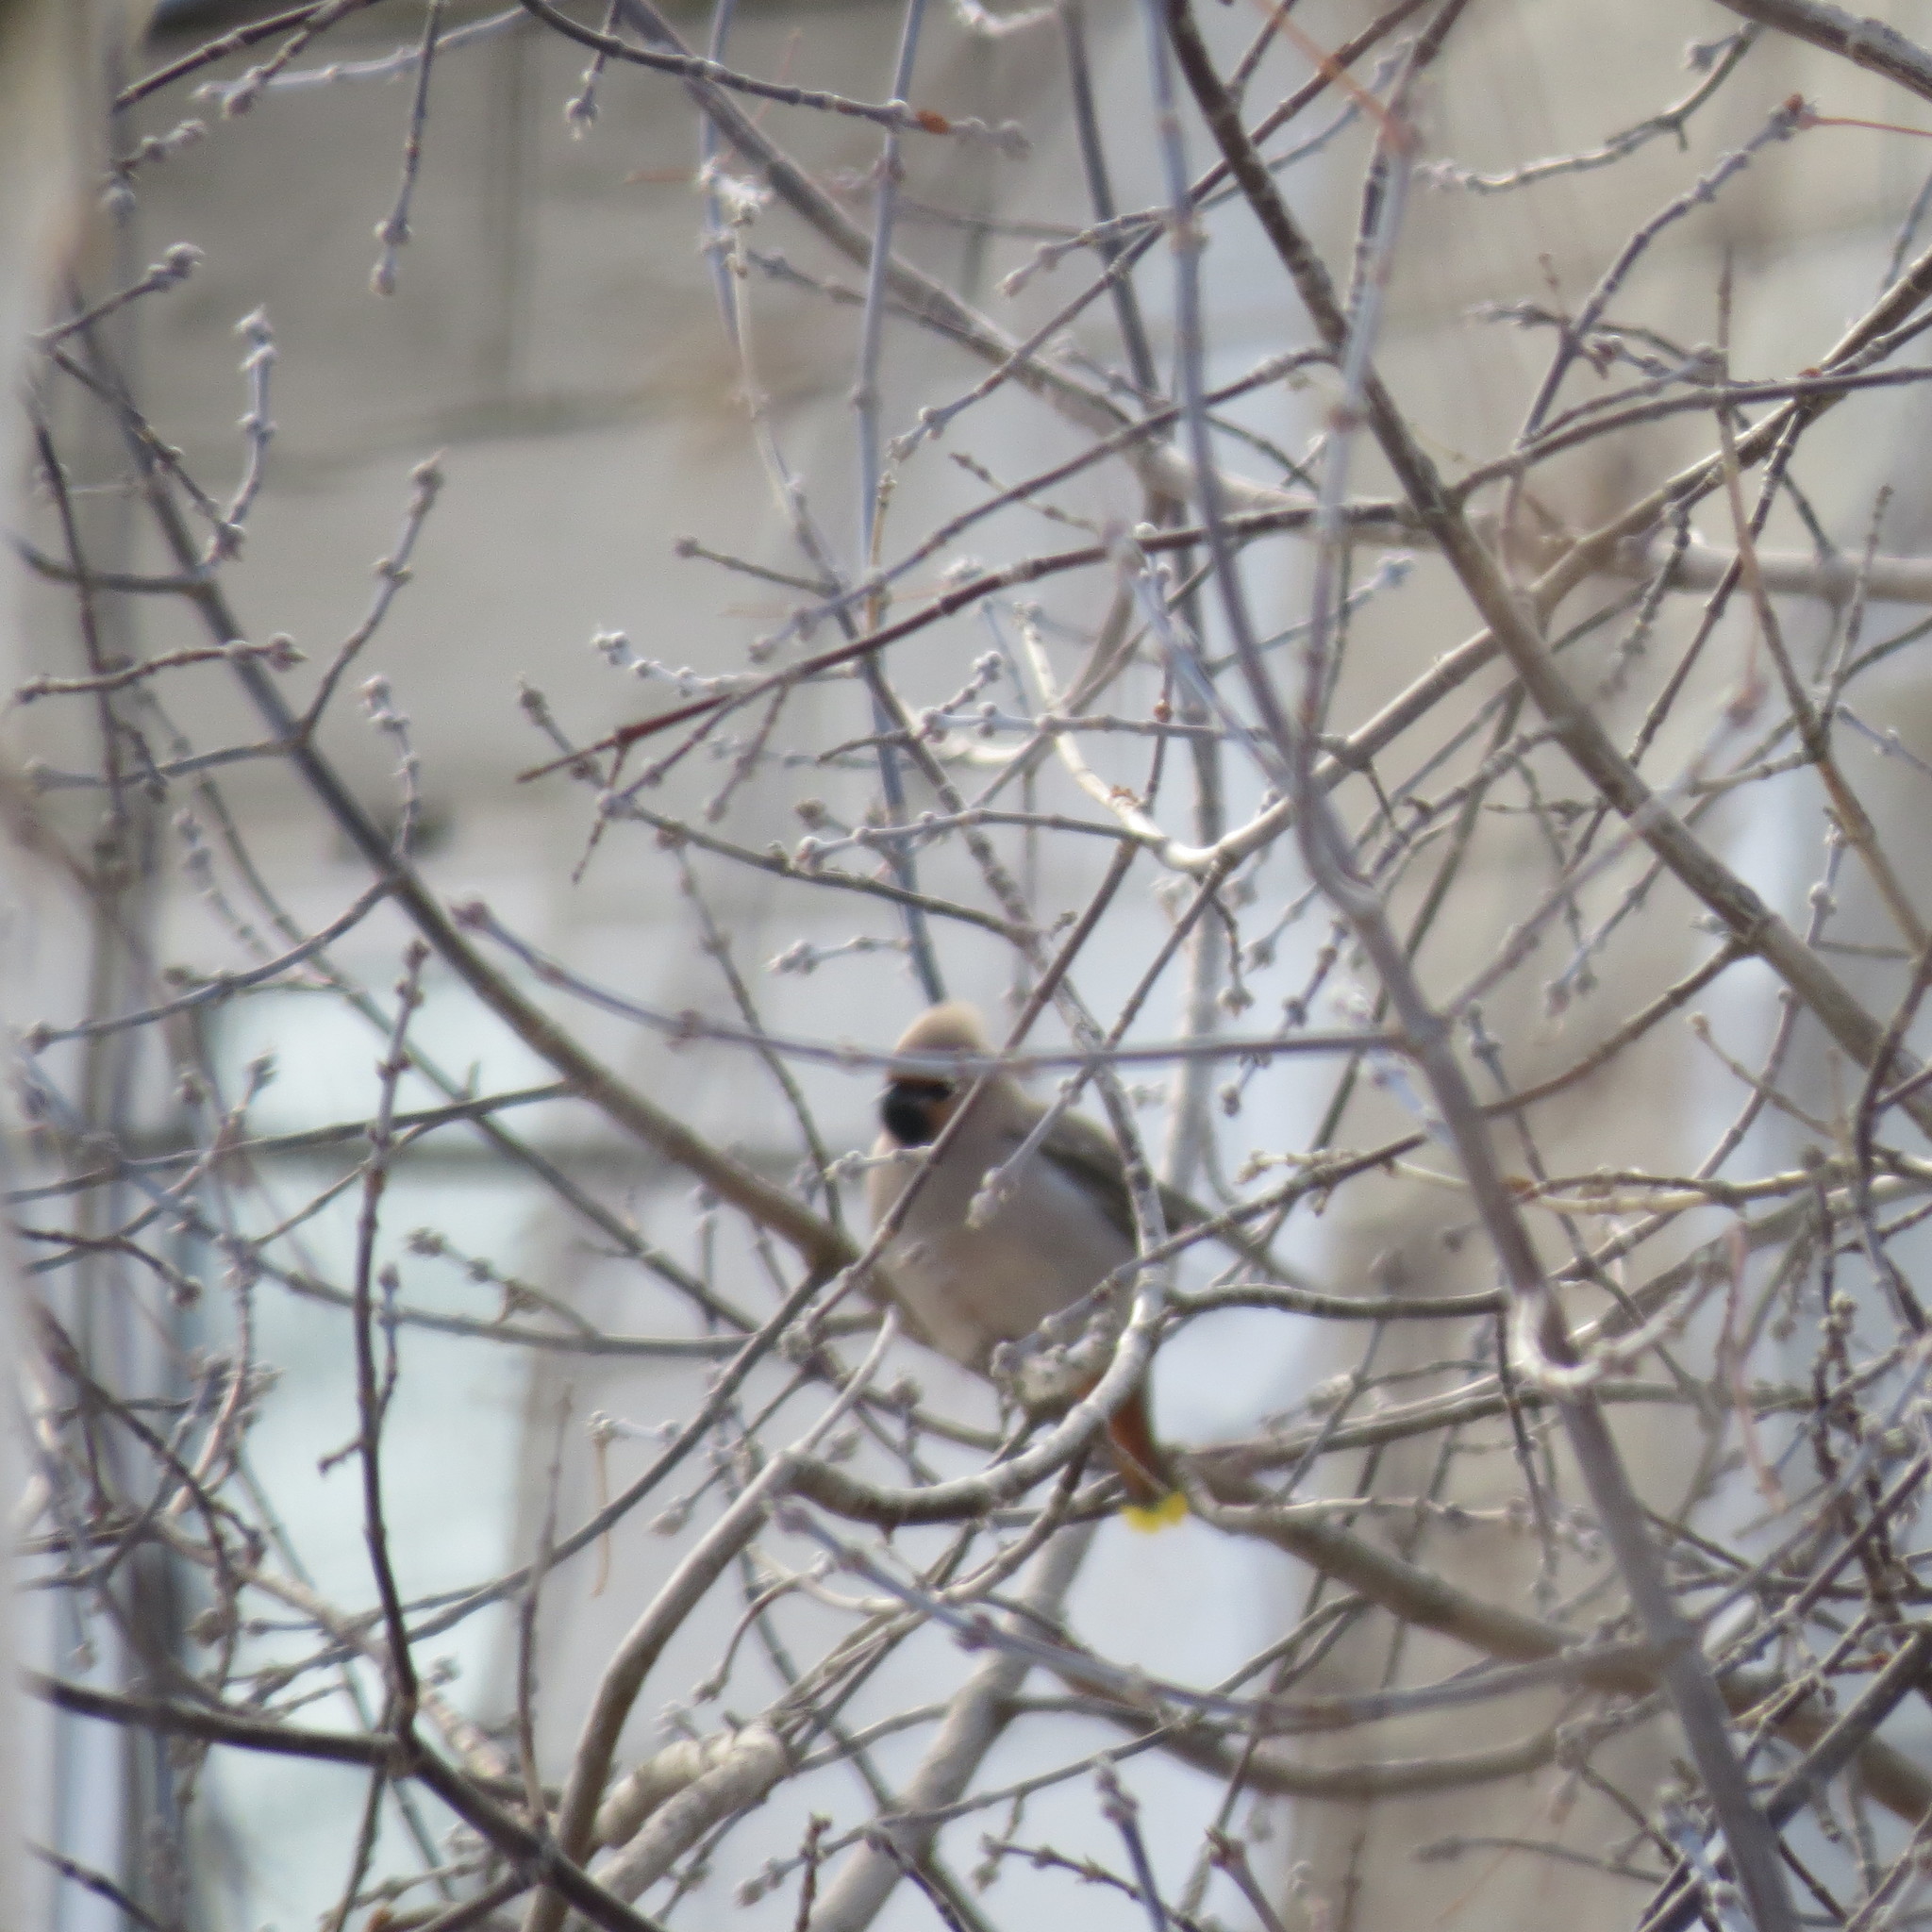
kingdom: Animalia
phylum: Chordata
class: Aves
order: Passeriformes
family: Bombycillidae
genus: Bombycilla
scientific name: Bombycilla garrulus
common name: Bohemian waxwing
